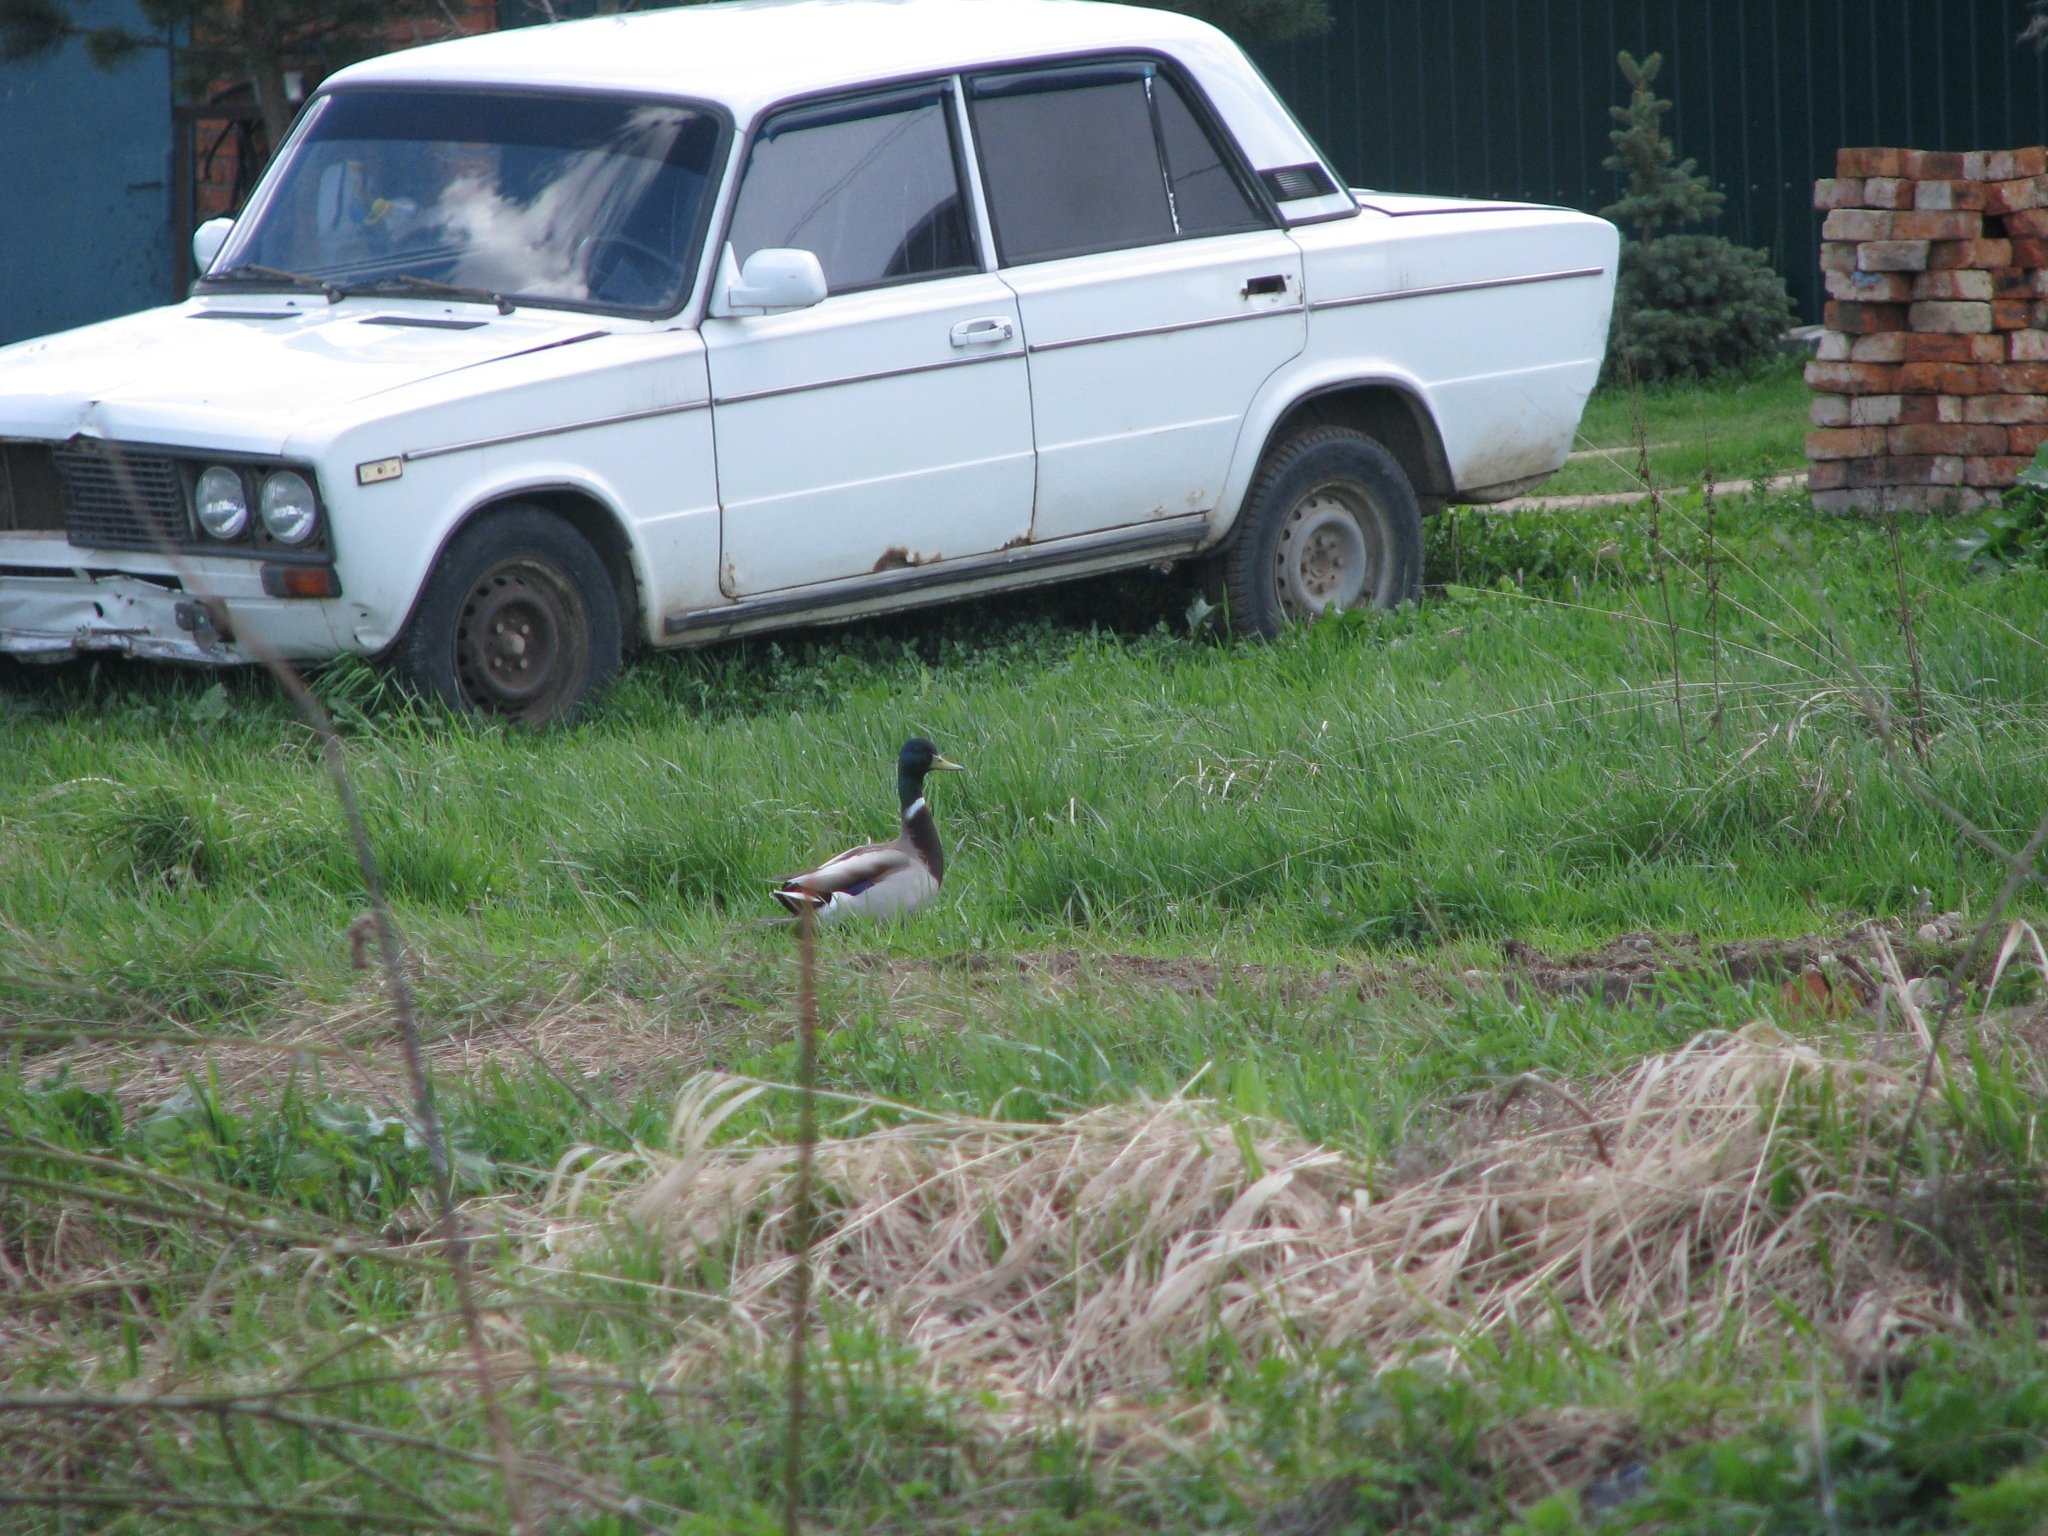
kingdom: Animalia
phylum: Chordata
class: Aves
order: Anseriformes
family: Anatidae
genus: Anas
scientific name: Anas platyrhynchos
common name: Mallard
